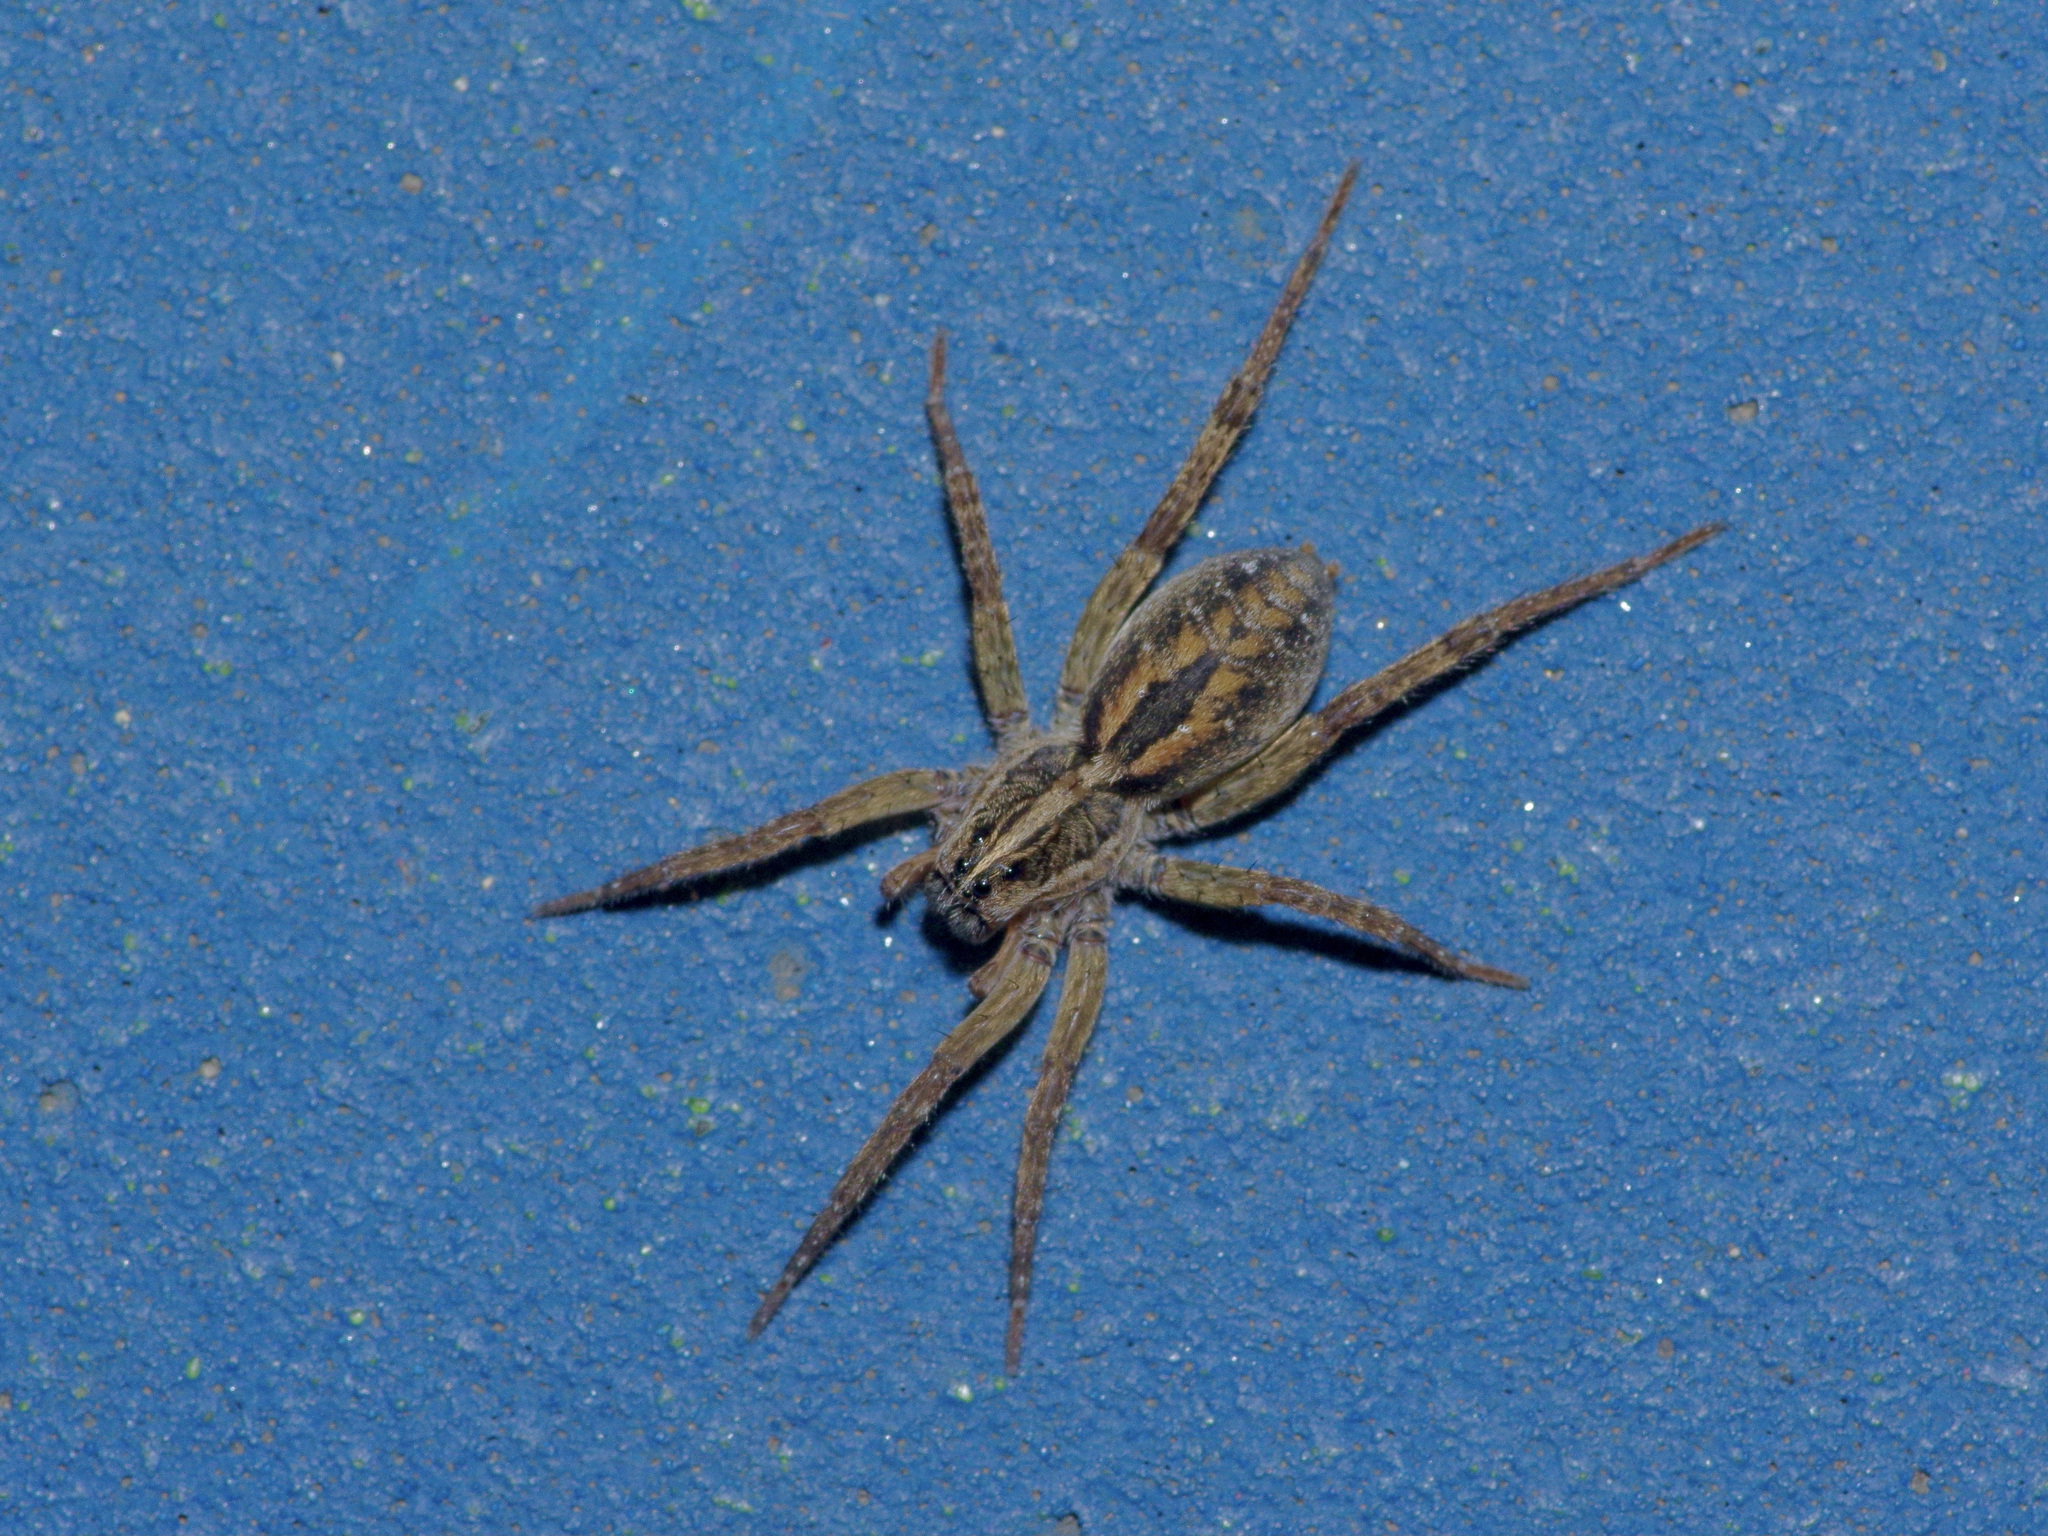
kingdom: Animalia
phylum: Arthropoda
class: Arachnida
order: Araneae
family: Lycosidae
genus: Tigrosa
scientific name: Tigrosa annexa
